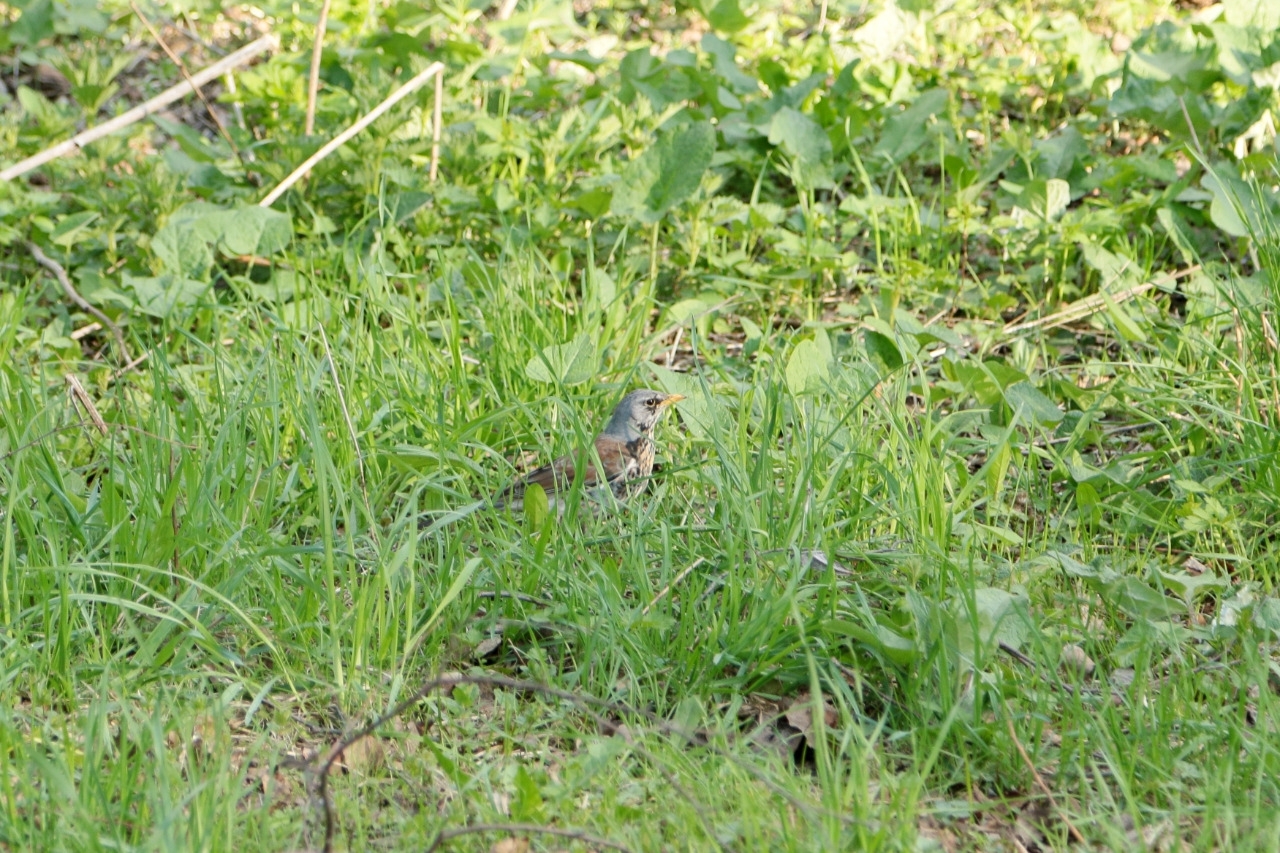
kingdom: Animalia
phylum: Chordata
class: Aves
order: Passeriformes
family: Turdidae
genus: Turdus
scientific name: Turdus pilaris
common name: Fieldfare
